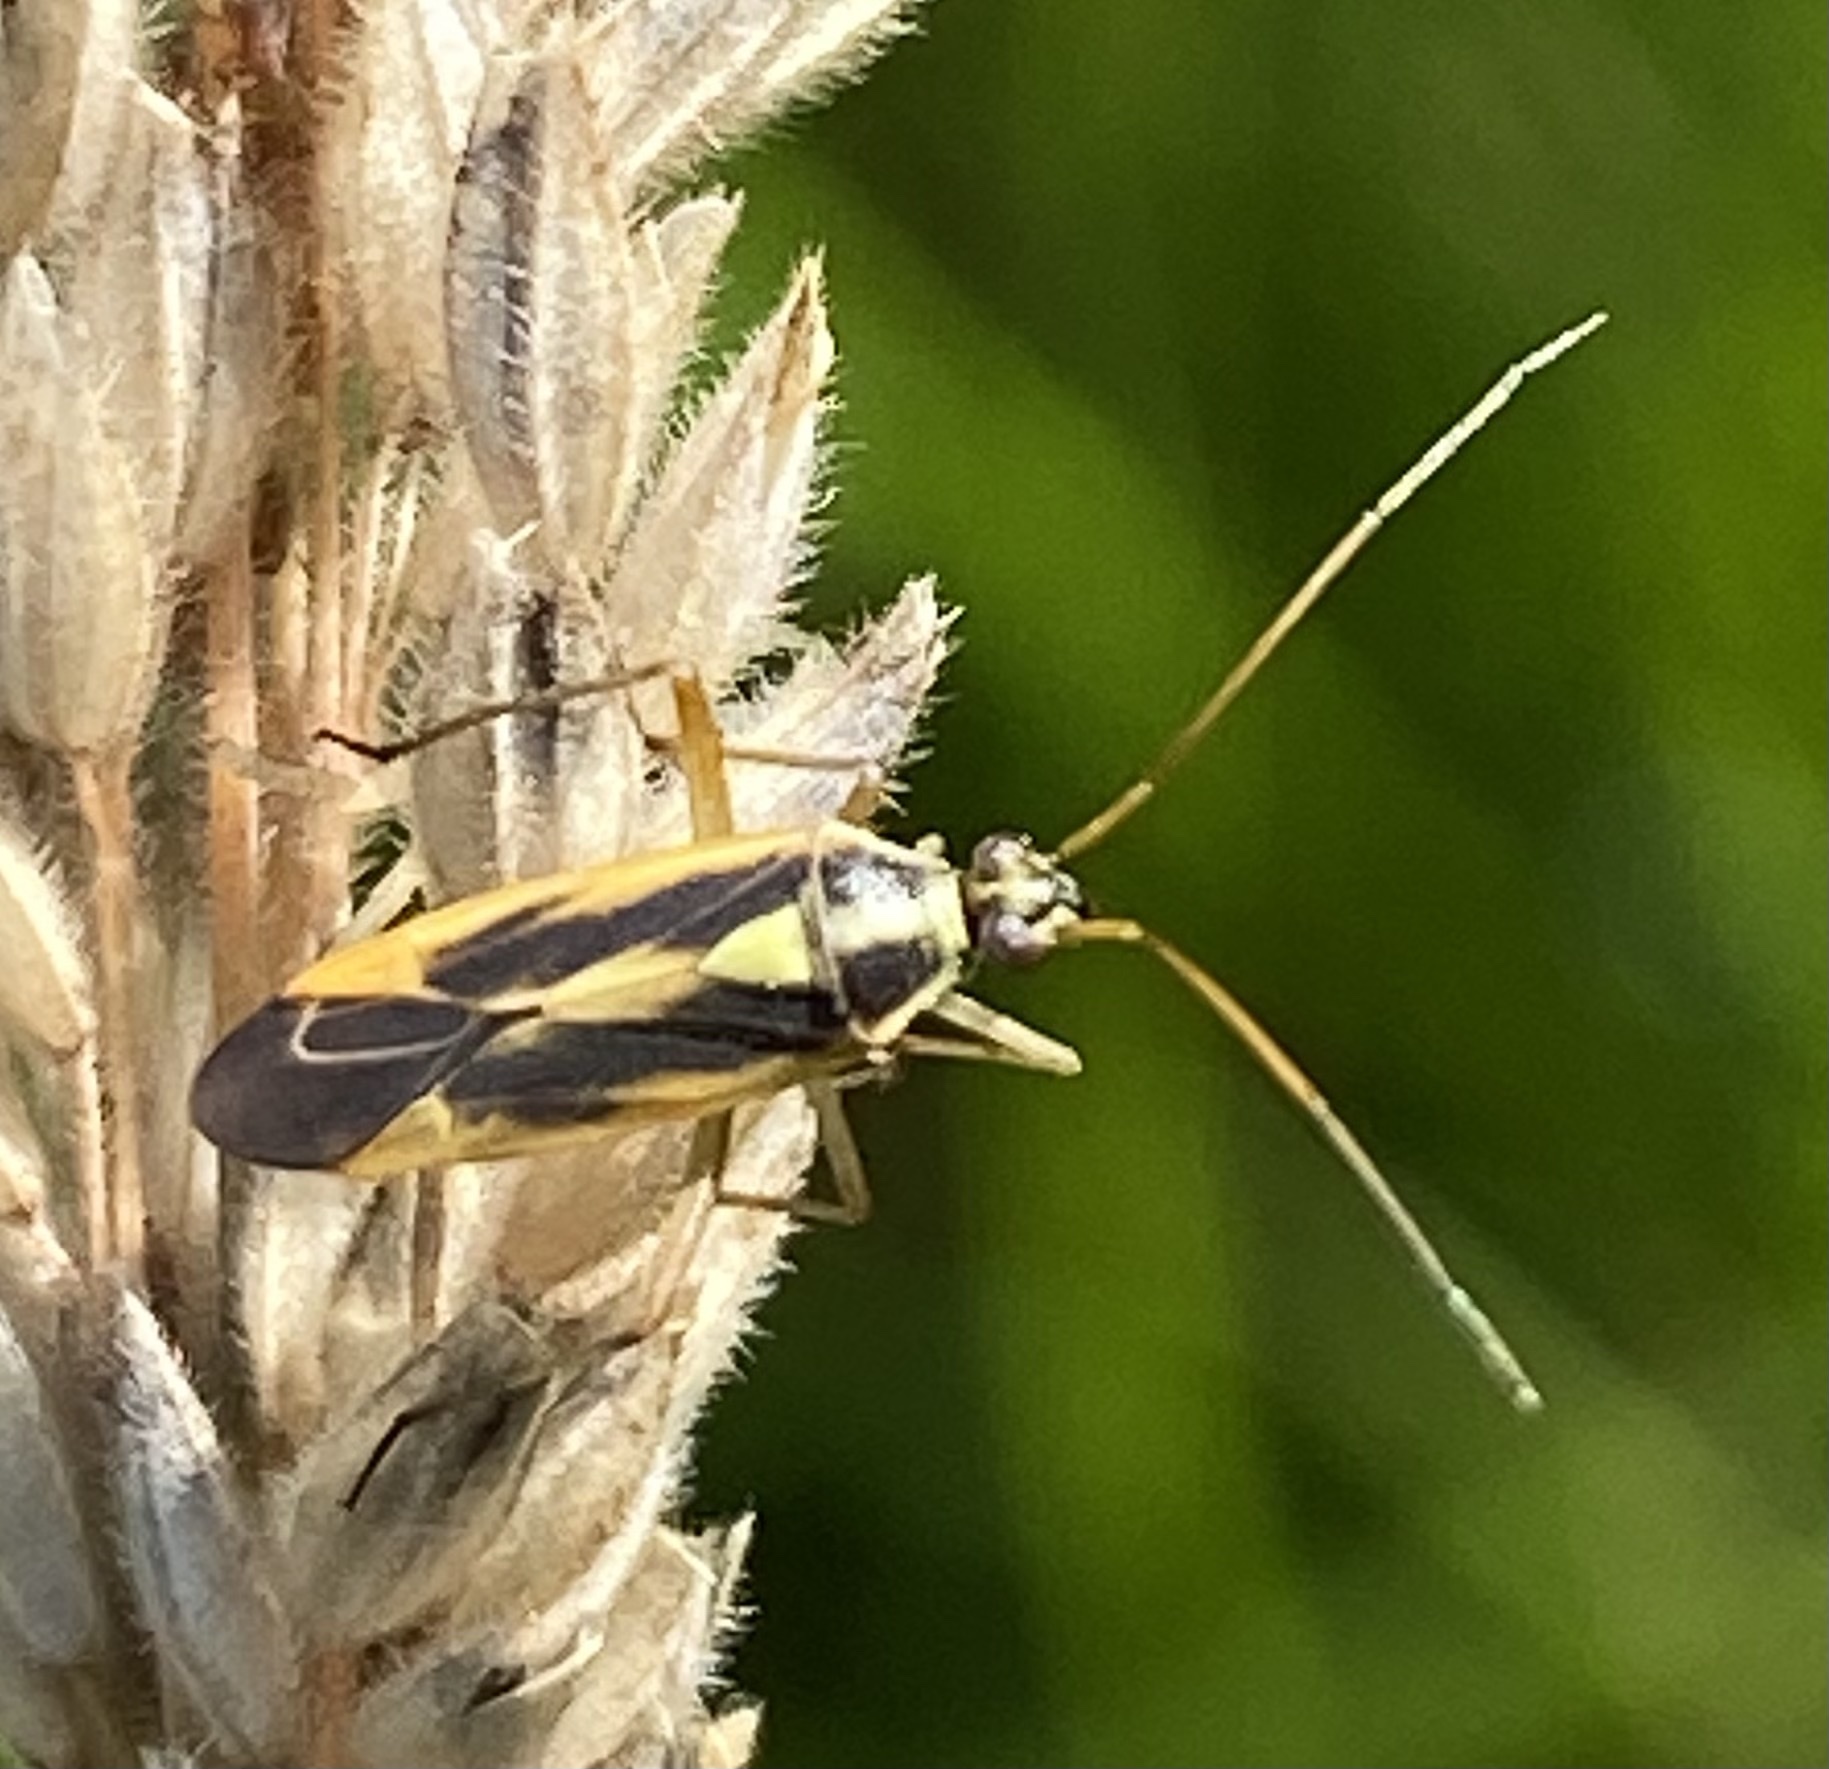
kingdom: Animalia
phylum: Arthropoda
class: Insecta
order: Hemiptera
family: Miridae
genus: Stenotus
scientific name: Stenotus binotatus
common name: Plant bug
